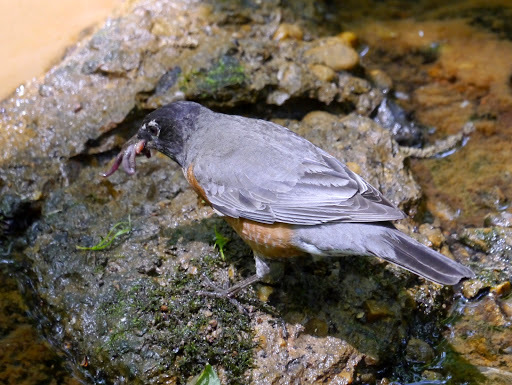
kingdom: Animalia
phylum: Chordata
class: Aves
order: Passeriformes
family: Turdidae
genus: Turdus
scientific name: Turdus migratorius
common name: American robin
